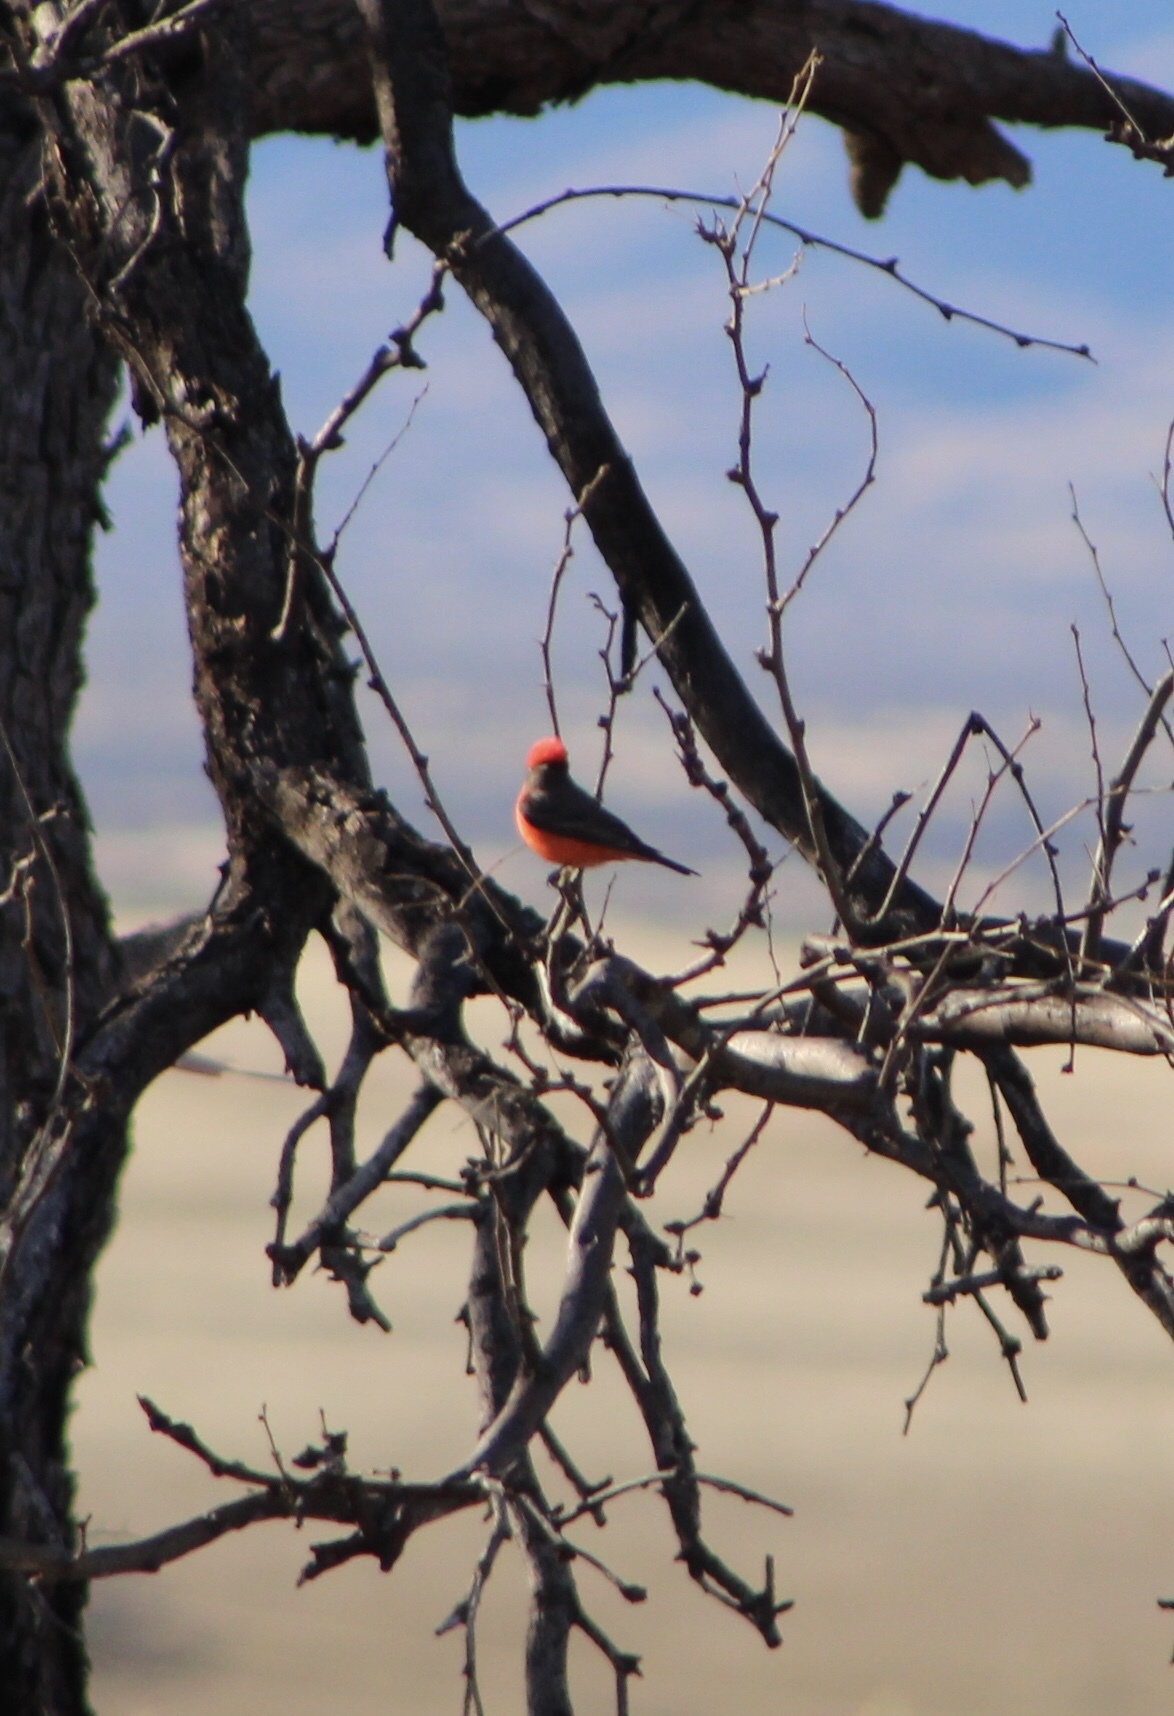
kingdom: Animalia
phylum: Chordata
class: Aves
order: Passeriformes
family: Tyrannidae
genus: Pyrocephalus
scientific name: Pyrocephalus rubinus
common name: Vermilion flycatcher
